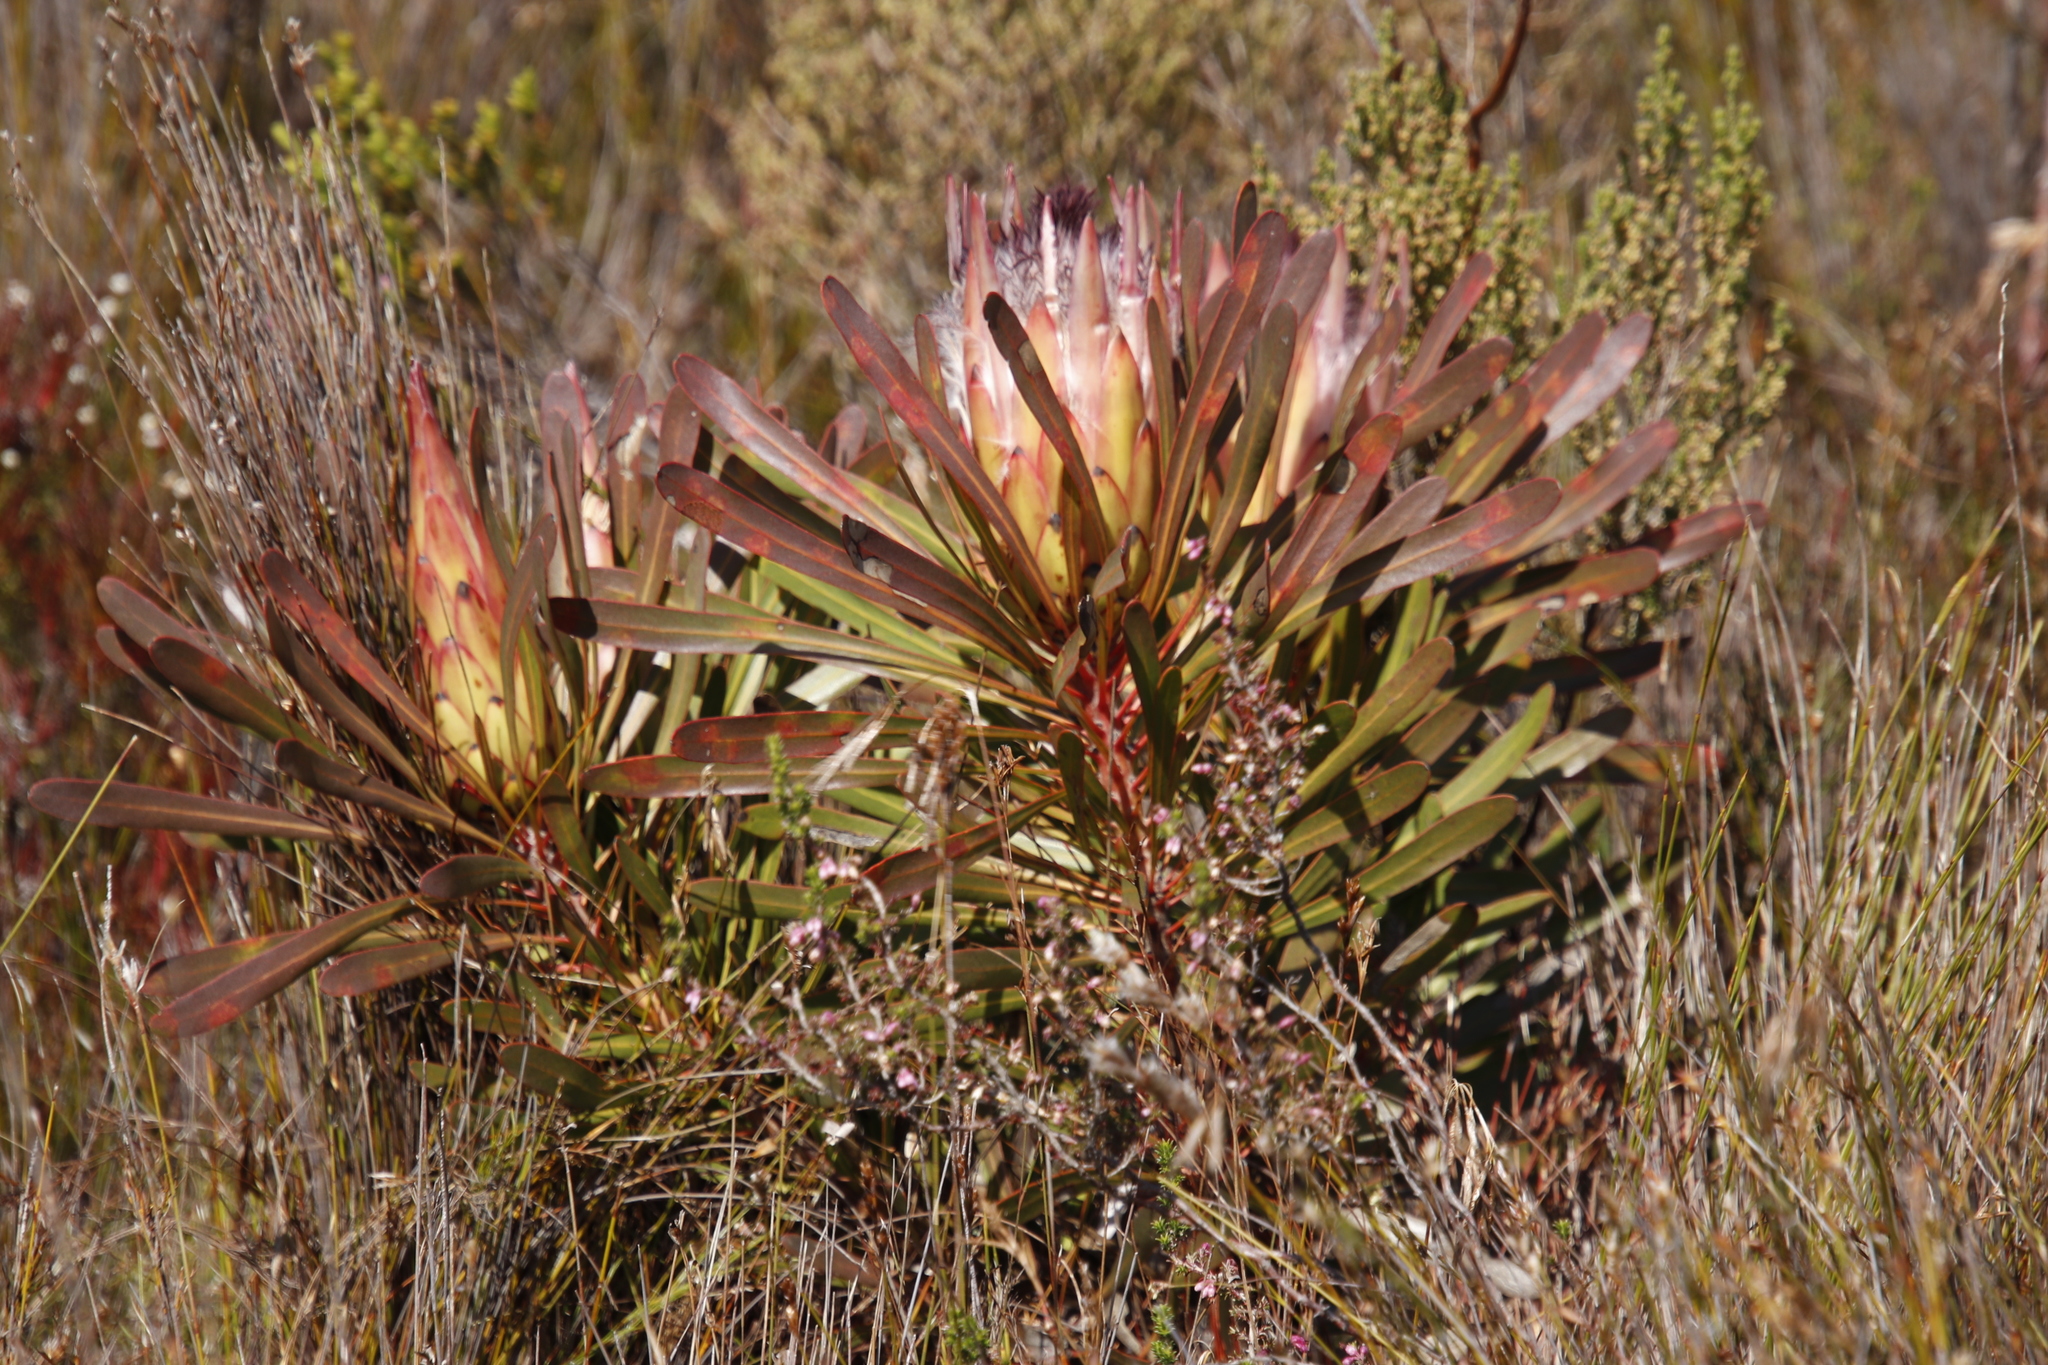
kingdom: Plantae
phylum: Tracheophyta
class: Magnoliopsida
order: Proteales
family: Proteaceae
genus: Protea
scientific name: Protea longifolia
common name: Long-leaf sugarbush
